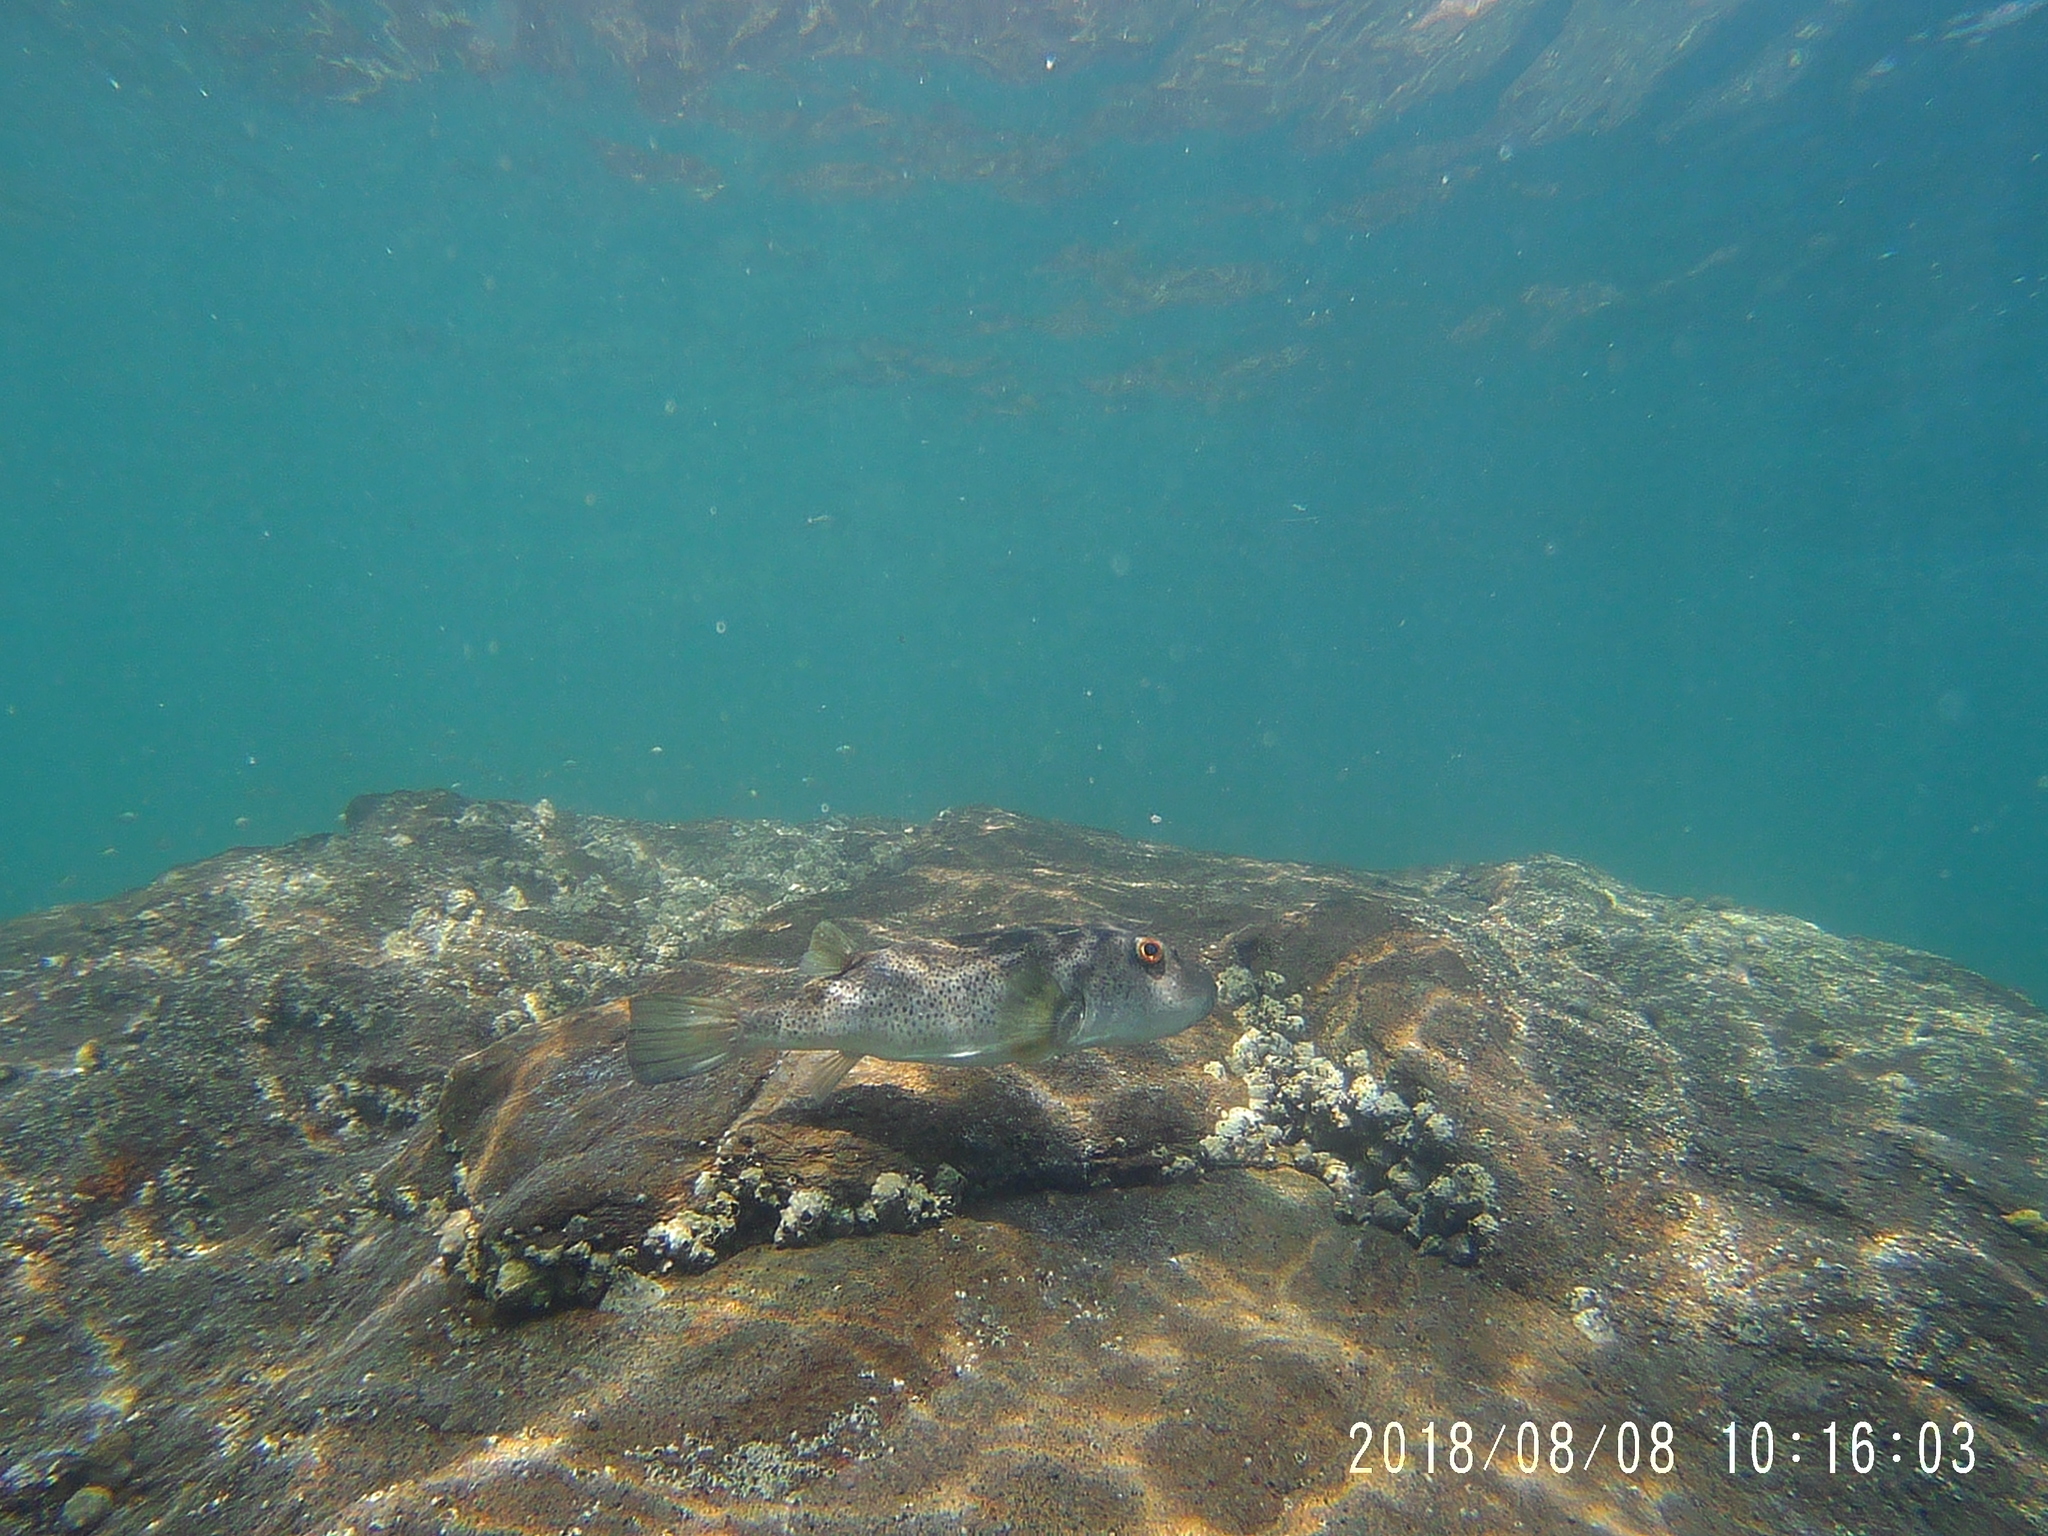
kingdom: Animalia
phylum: Chordata
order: Tetraodontiformes
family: Tetraodontidae
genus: Sphoeroides
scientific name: Sphoeroides annulatus
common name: Bullseye puffer
